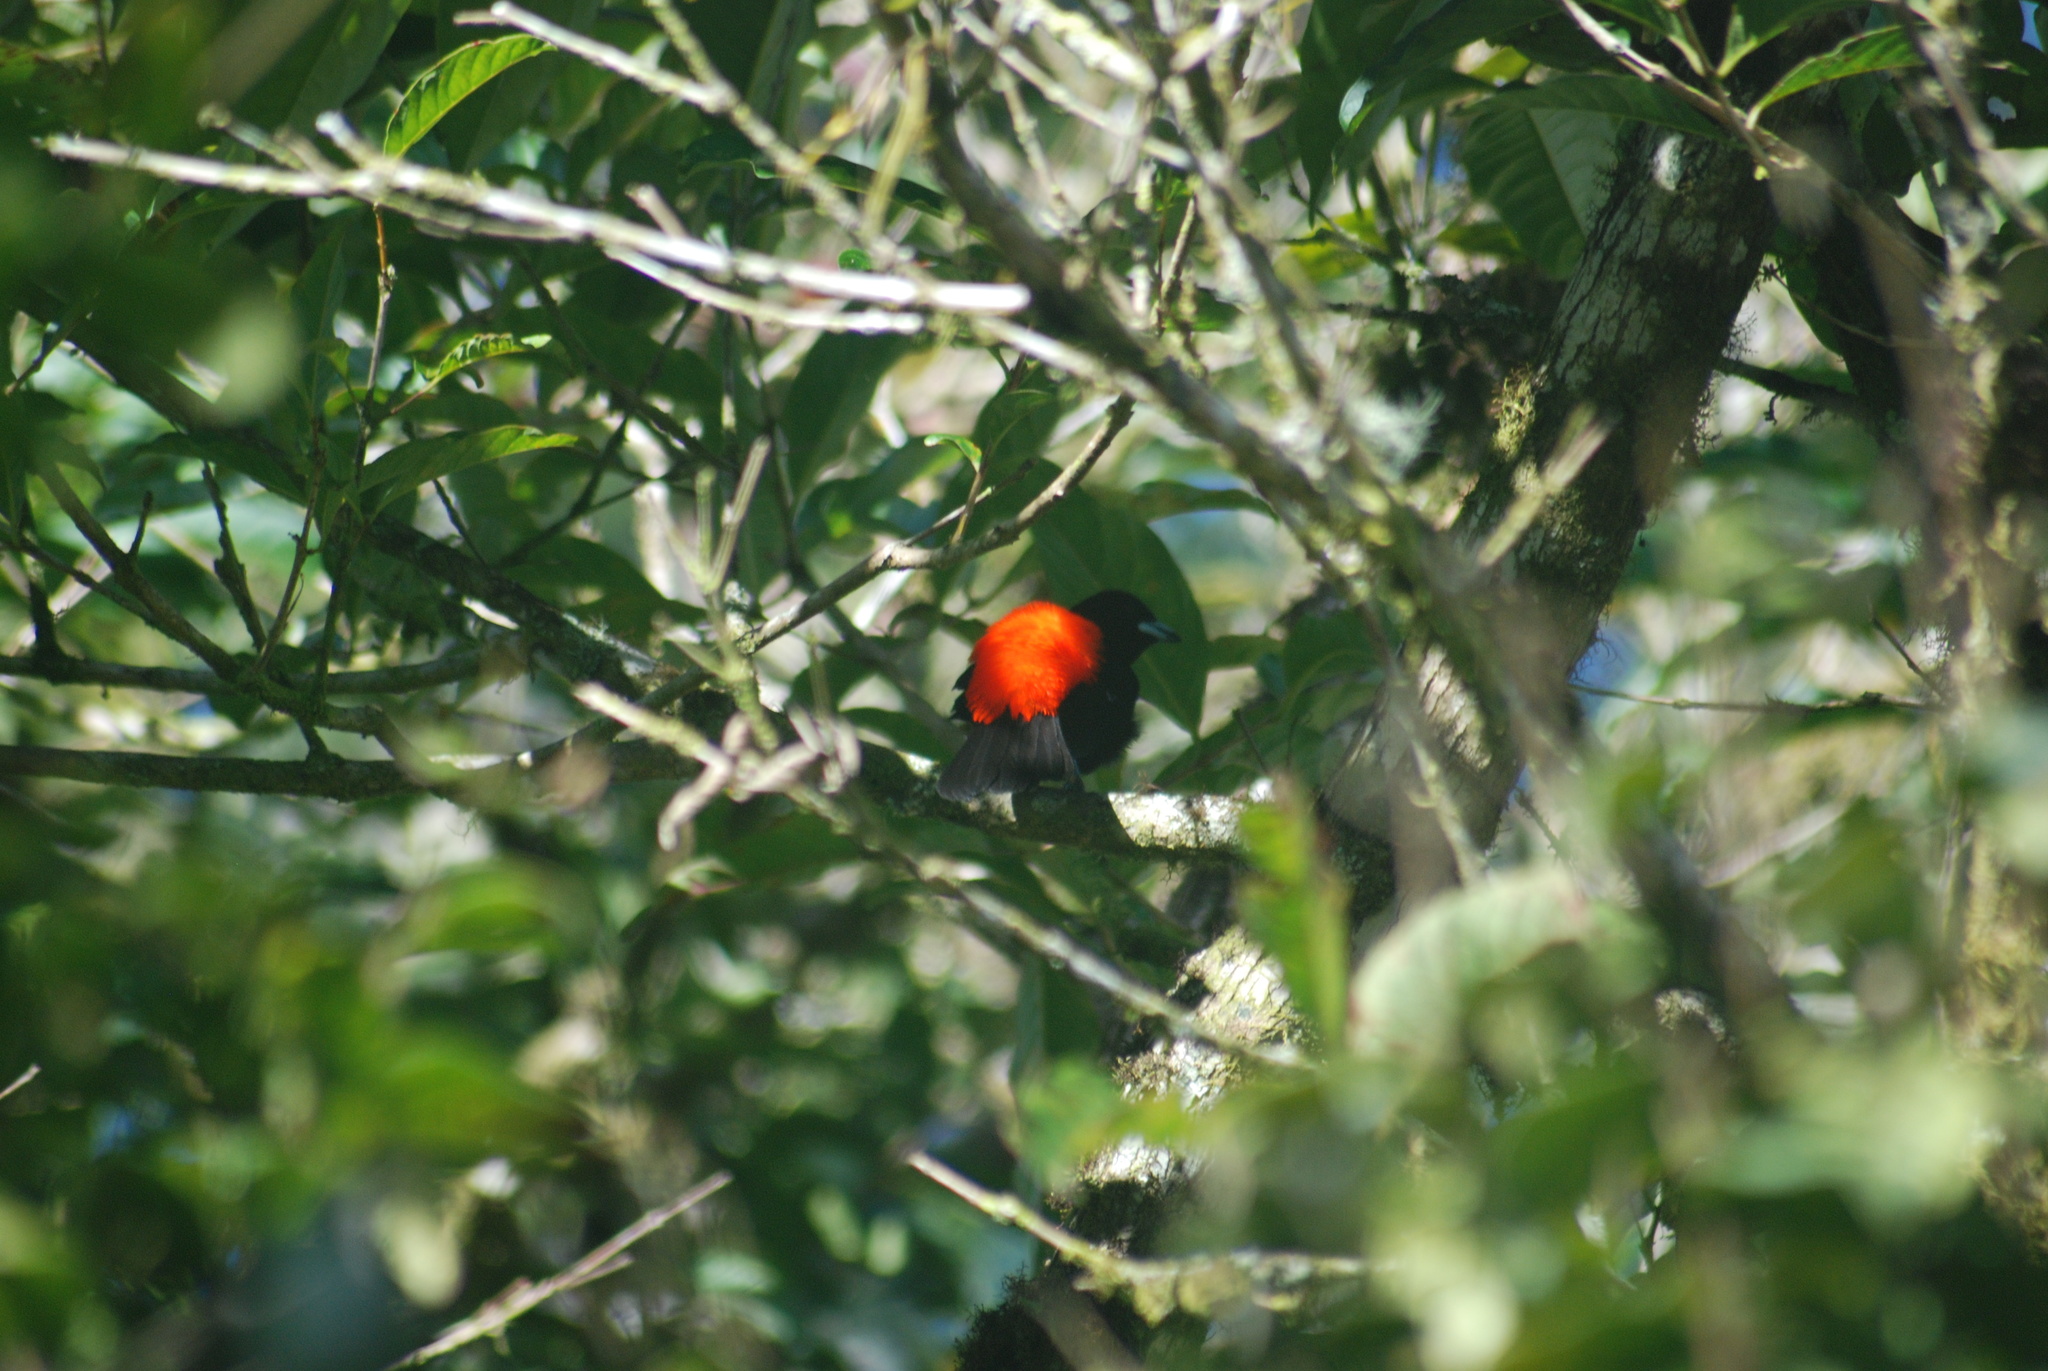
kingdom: Animalia
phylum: Chordata
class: Aves
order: Passeriformes
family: Thraupidae
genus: Ramphocelus
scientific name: Ramphocelus passerinii
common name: Passerini's tanager
